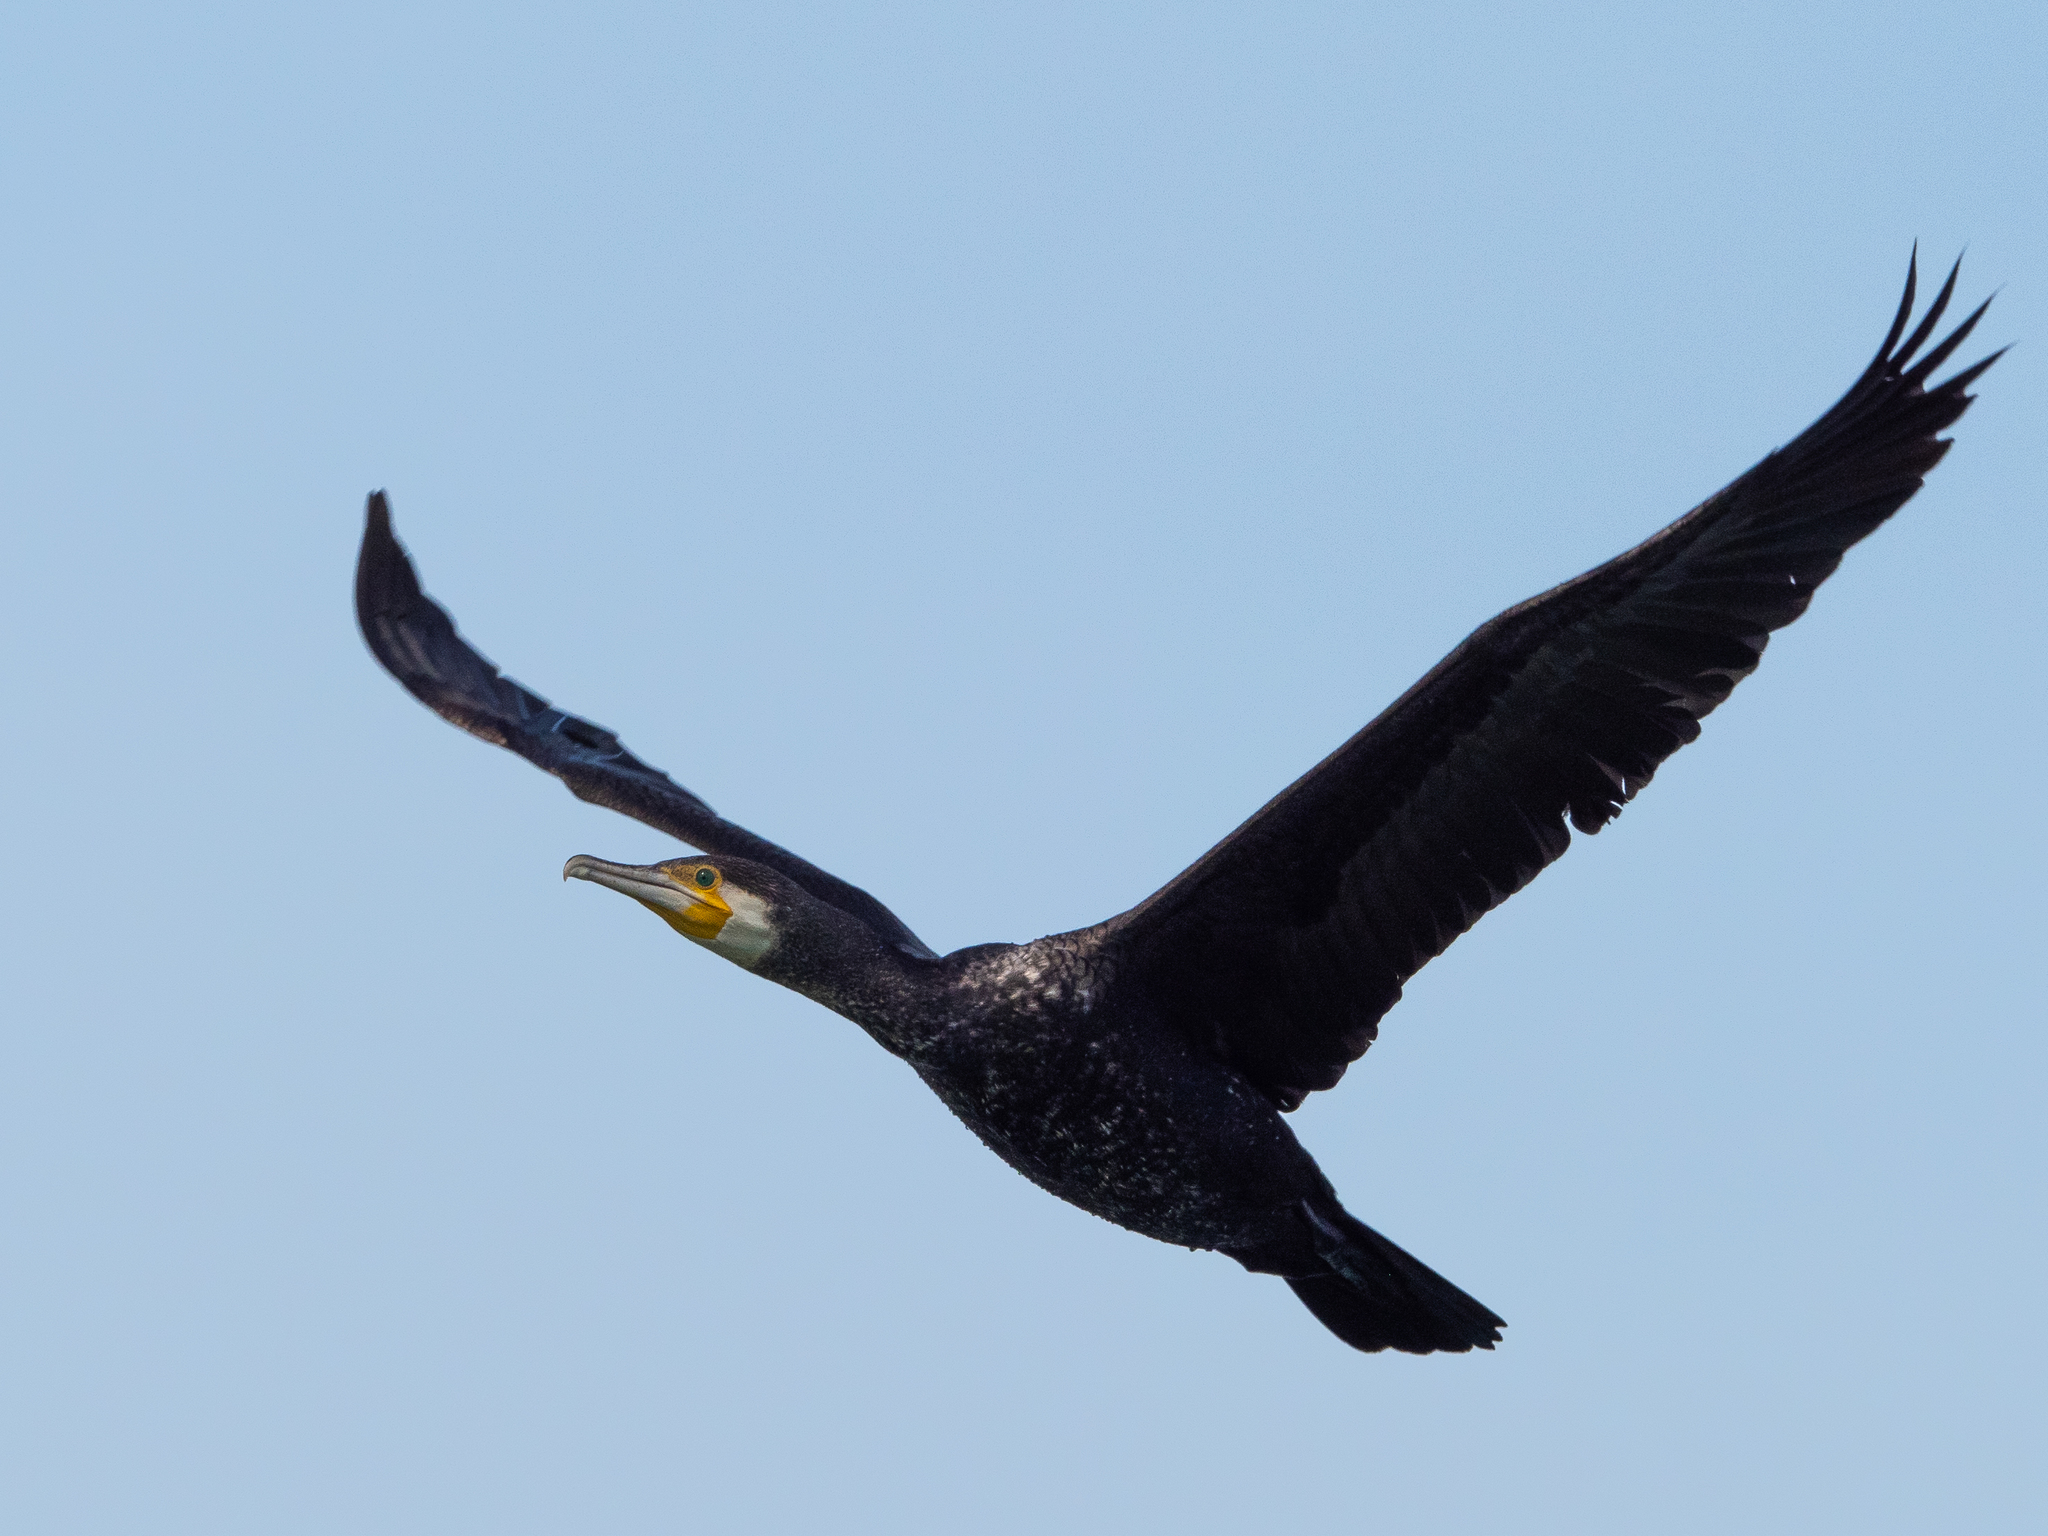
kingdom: Animalia
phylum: Chordata
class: Aves
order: Suliformes
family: Phalacrocoracidae
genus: Phalacrocorax
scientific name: Phalacrocorax carbo
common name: Great cormorant
